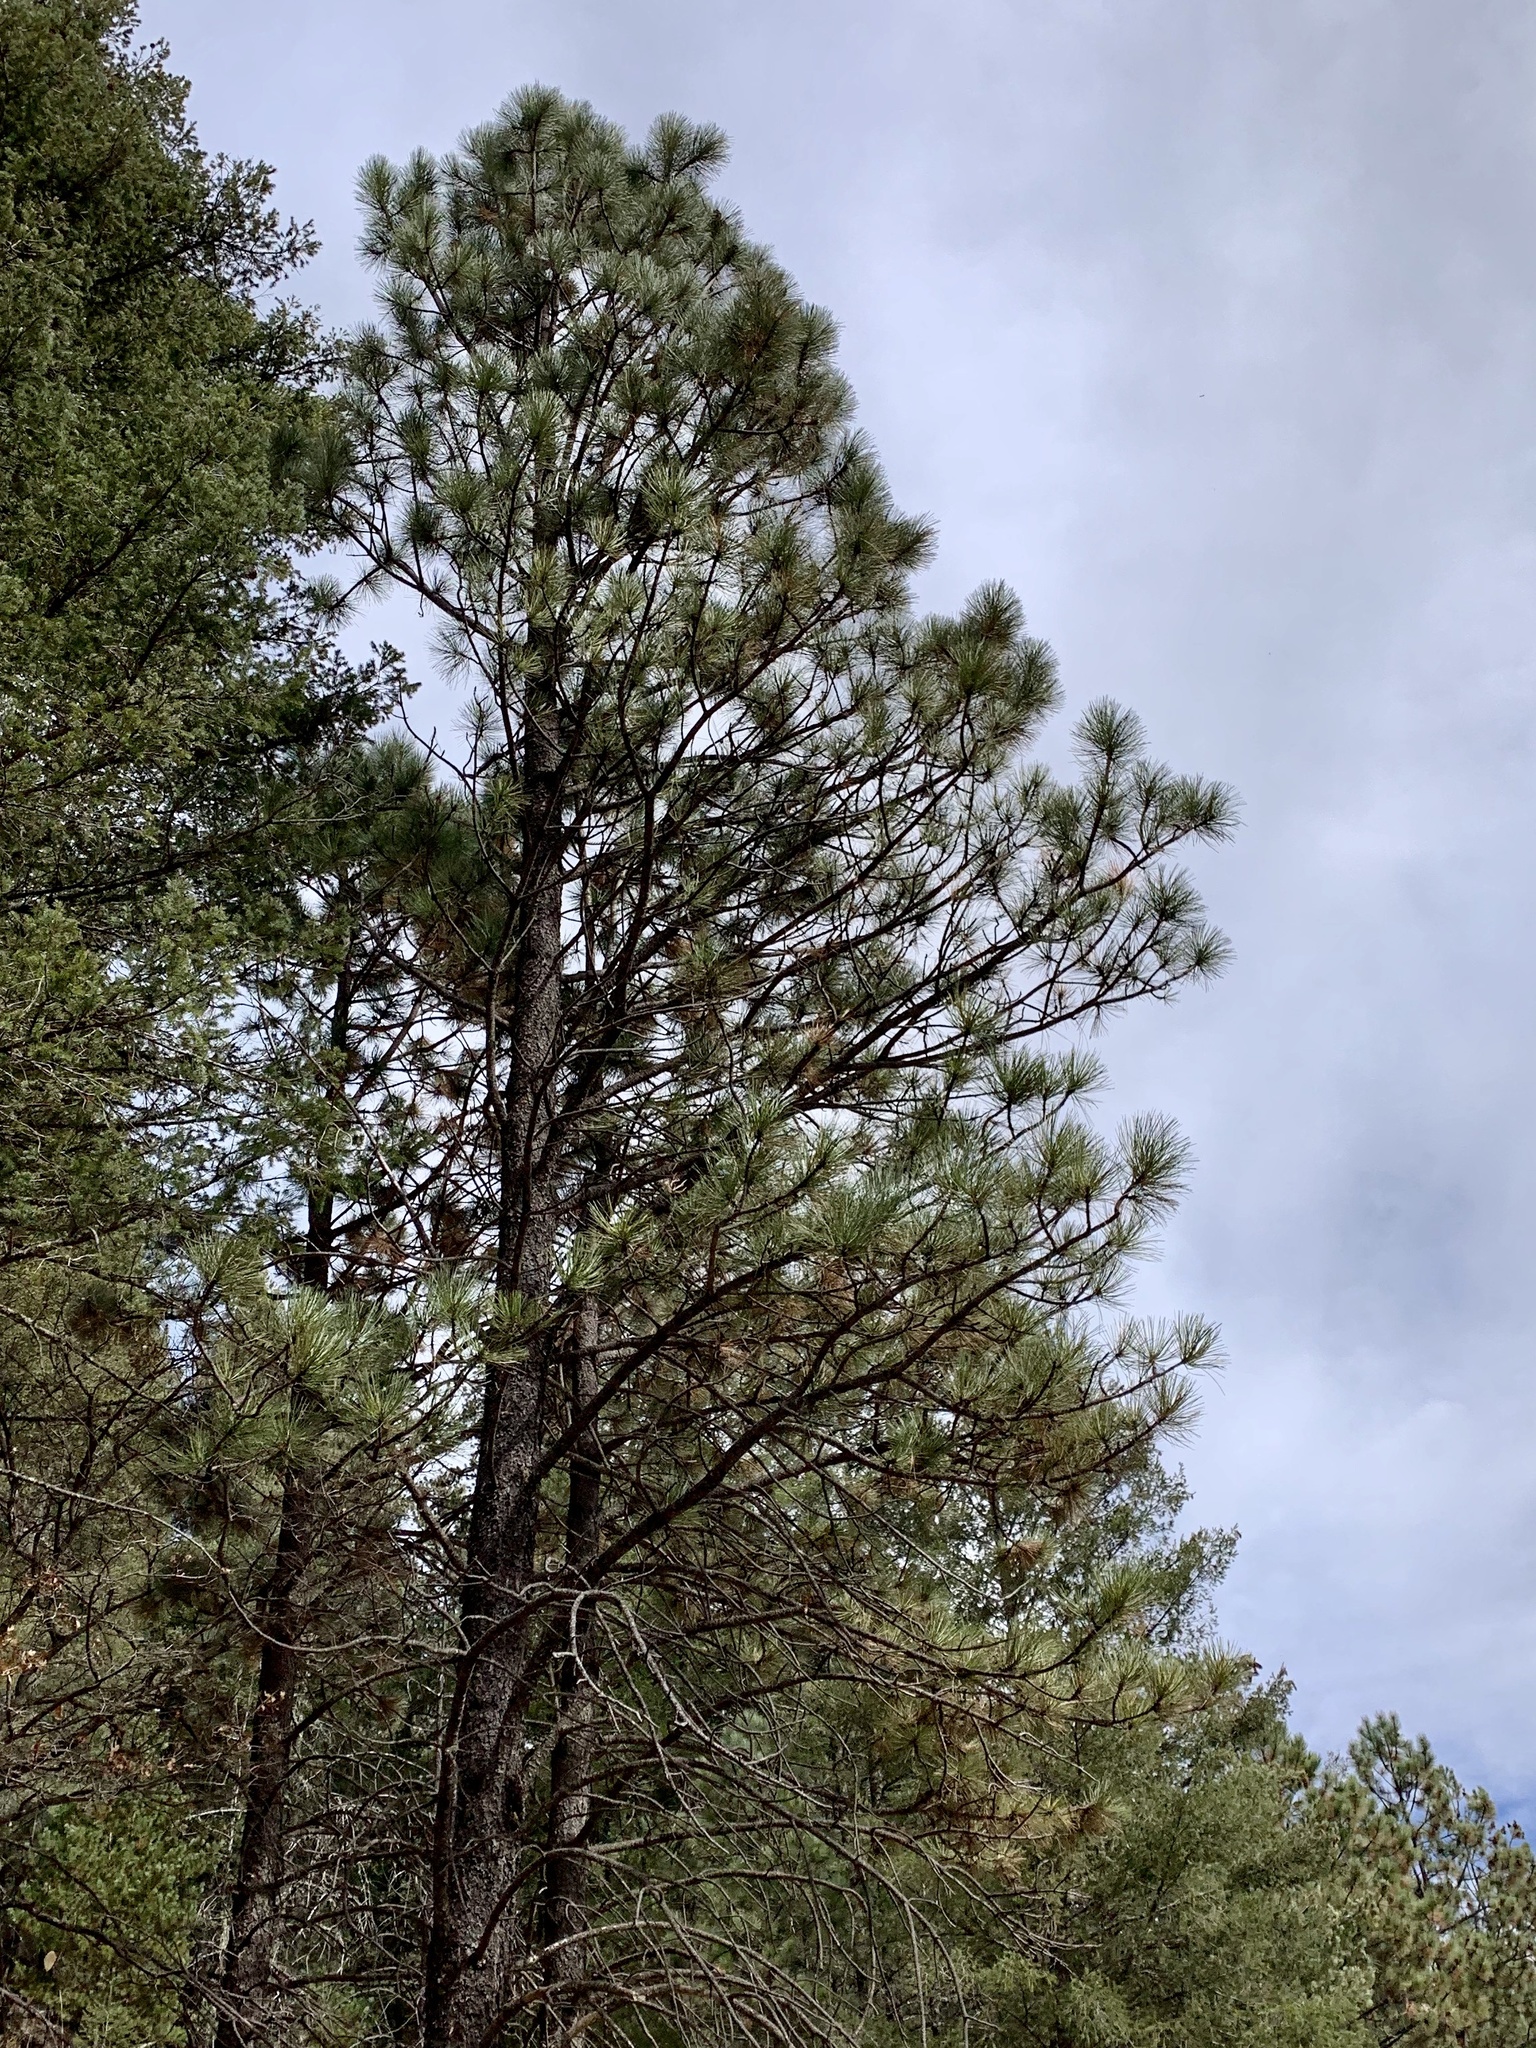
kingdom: Plantae
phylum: Tracheophyta
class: Pinopsida
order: Pinales
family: Pinaceae
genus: Pinus
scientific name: Pinus ponderosa
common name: Western yellow-pine
